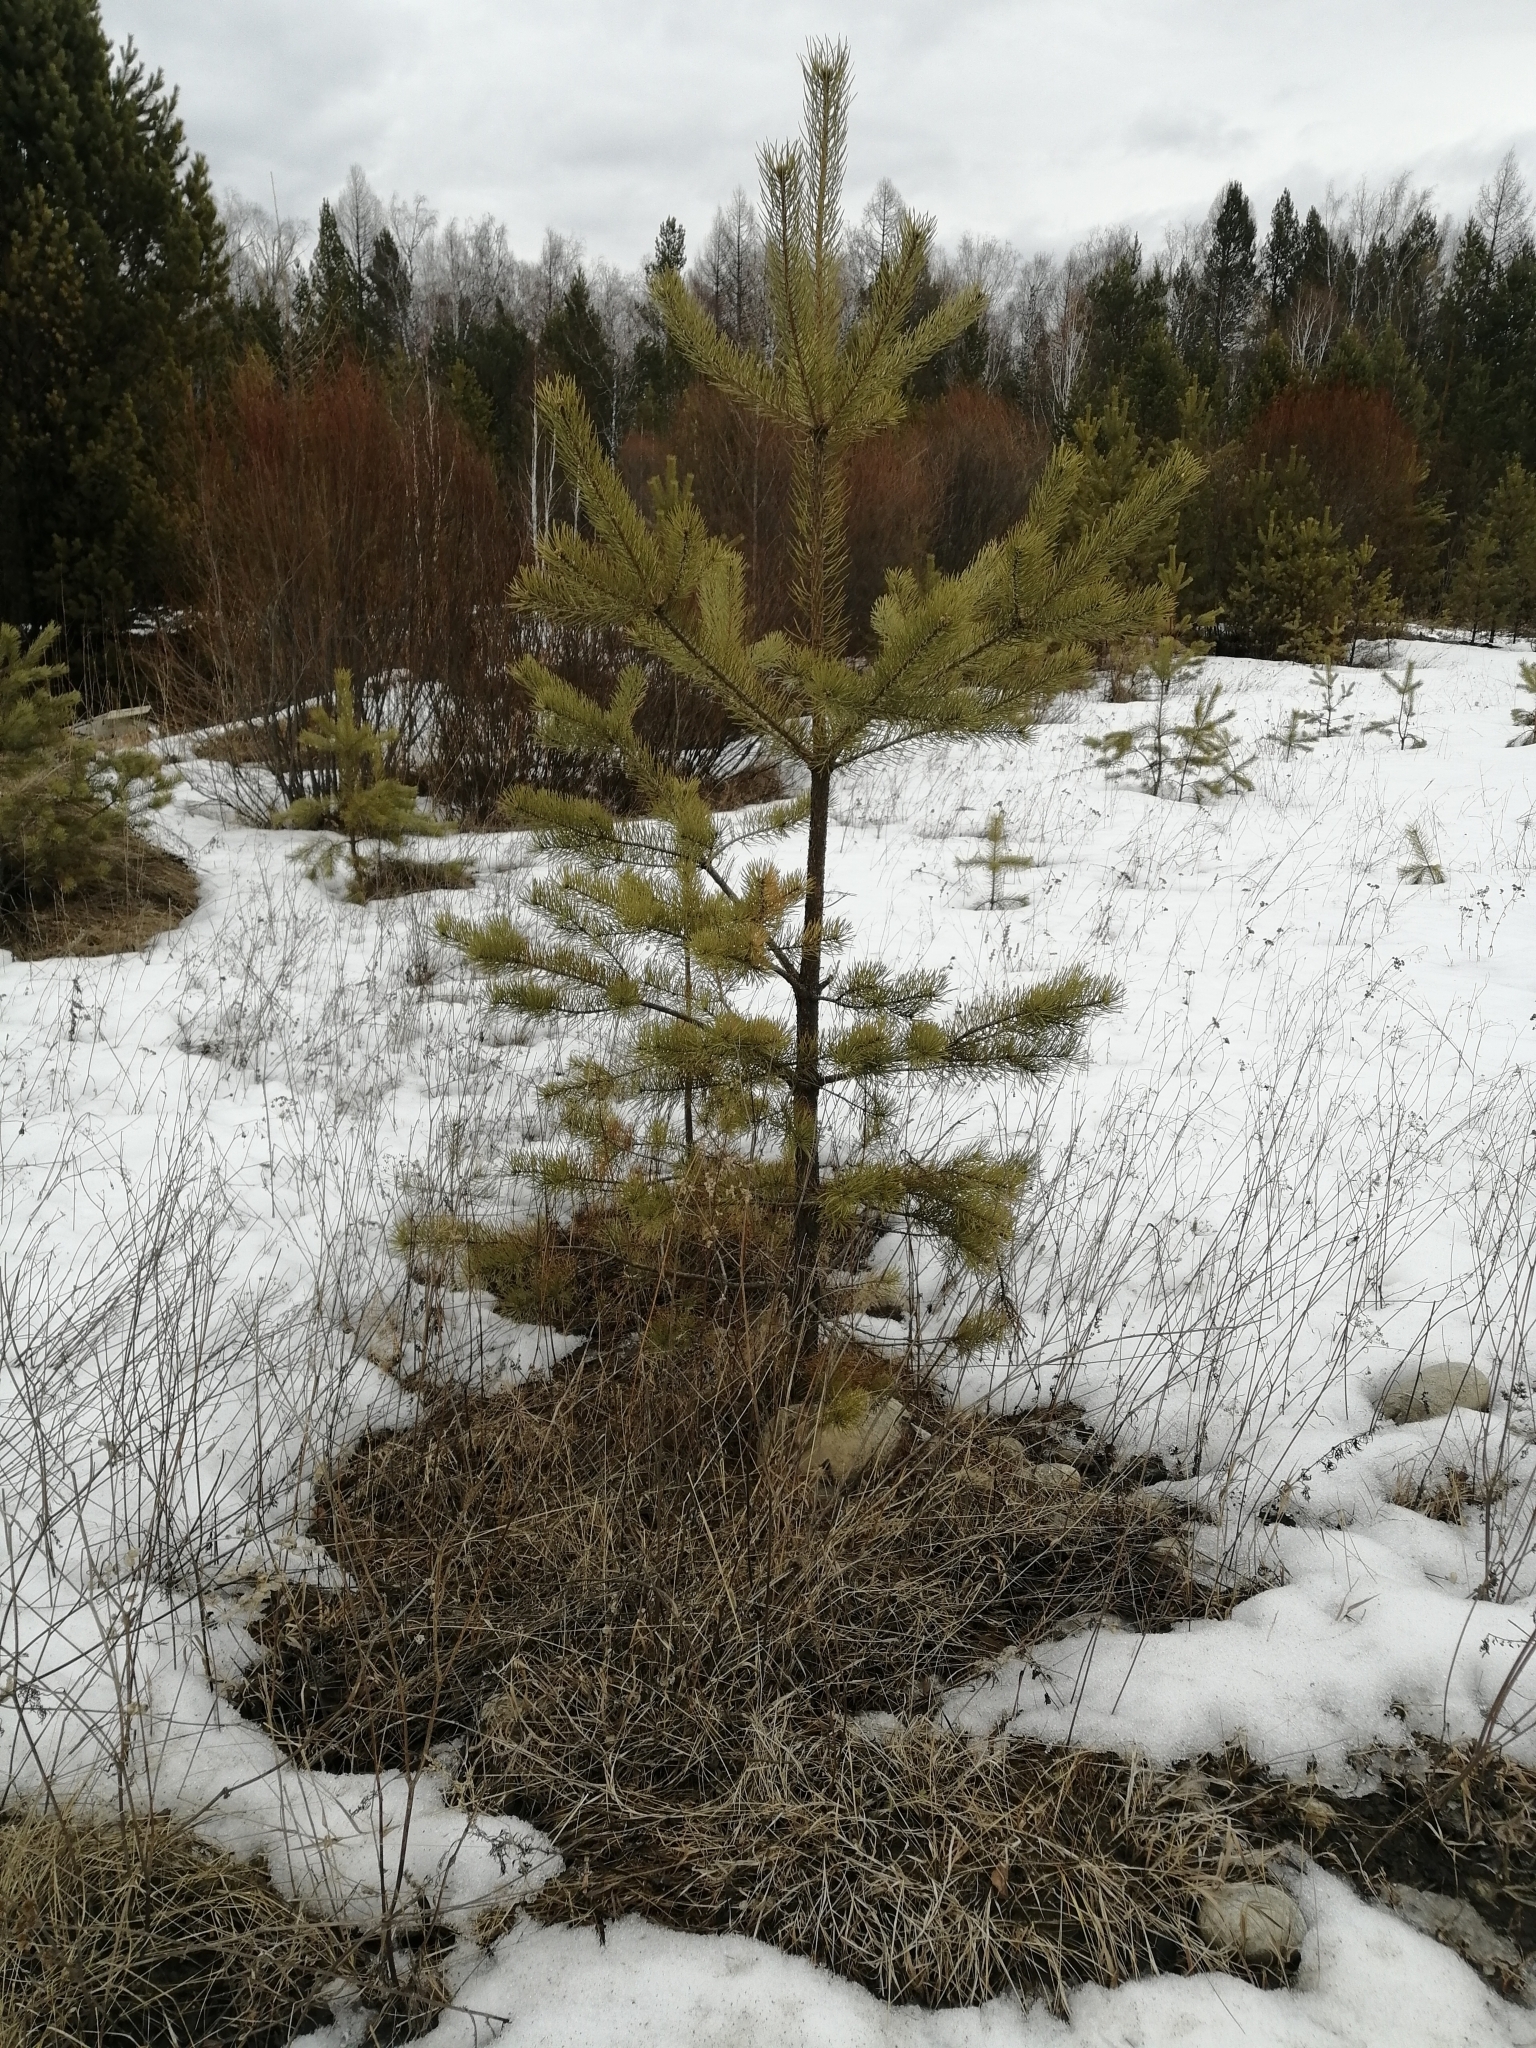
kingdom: Plantae
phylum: Tracheophyta
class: Pinopsida
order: Pinales
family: Pinaceae
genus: Pinus
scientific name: Pinus sylvestris
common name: Scots pine
